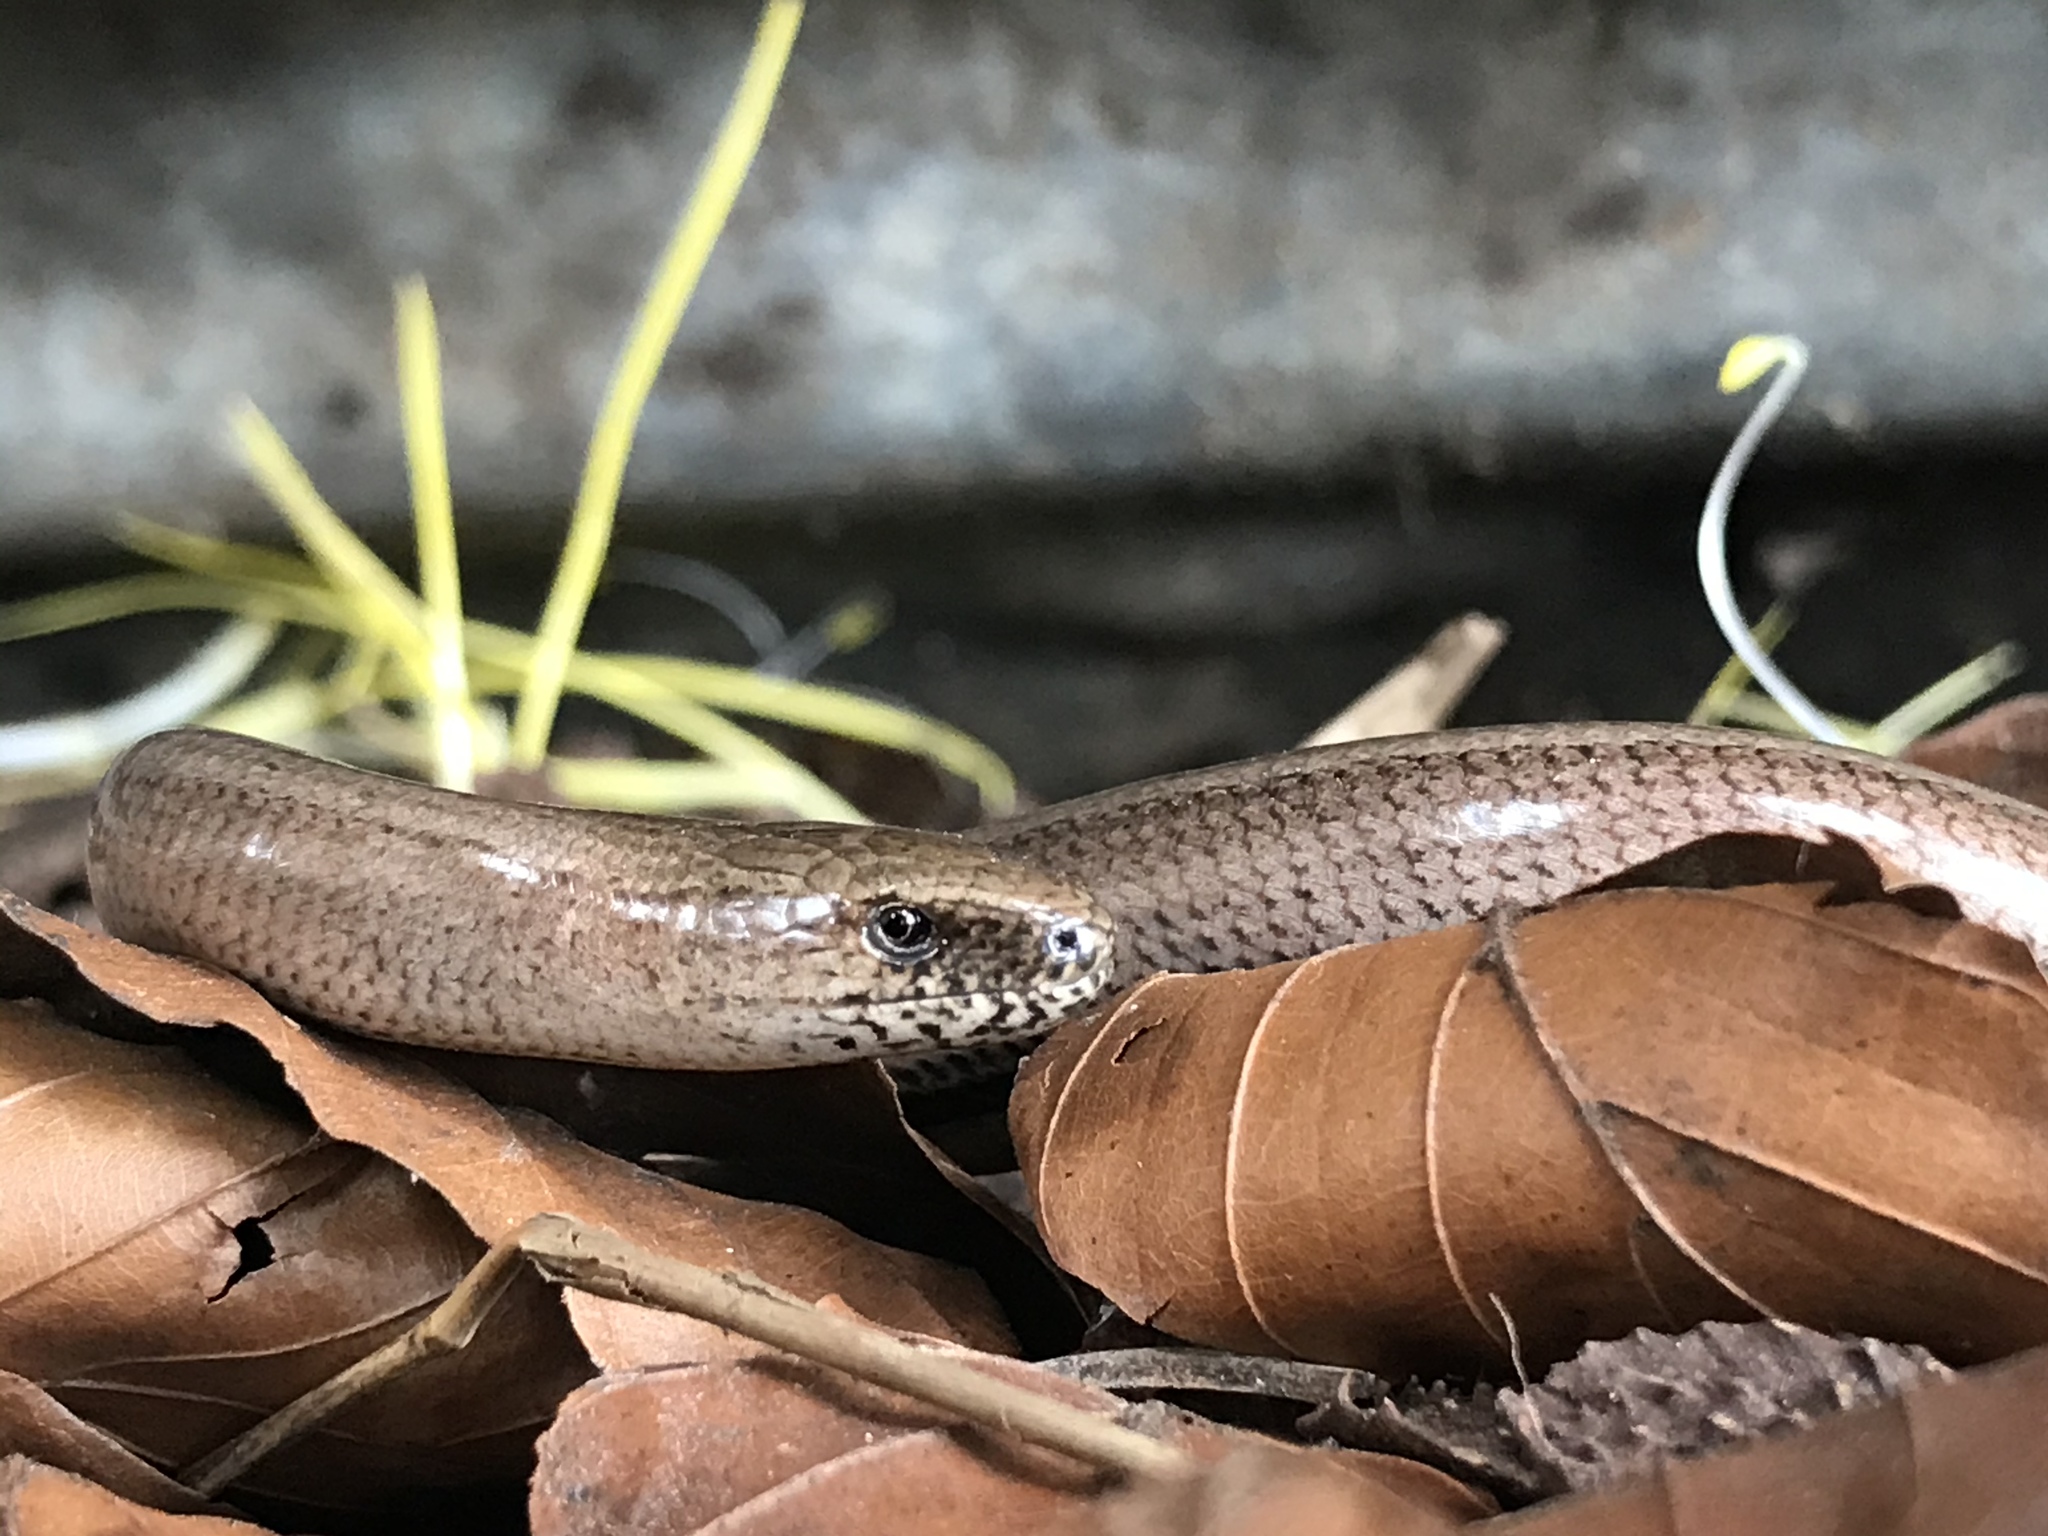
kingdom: Animalia
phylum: Chordata
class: Squamata
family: Anguidae
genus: Anguis
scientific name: Anguis fragilis
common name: Slow worm
